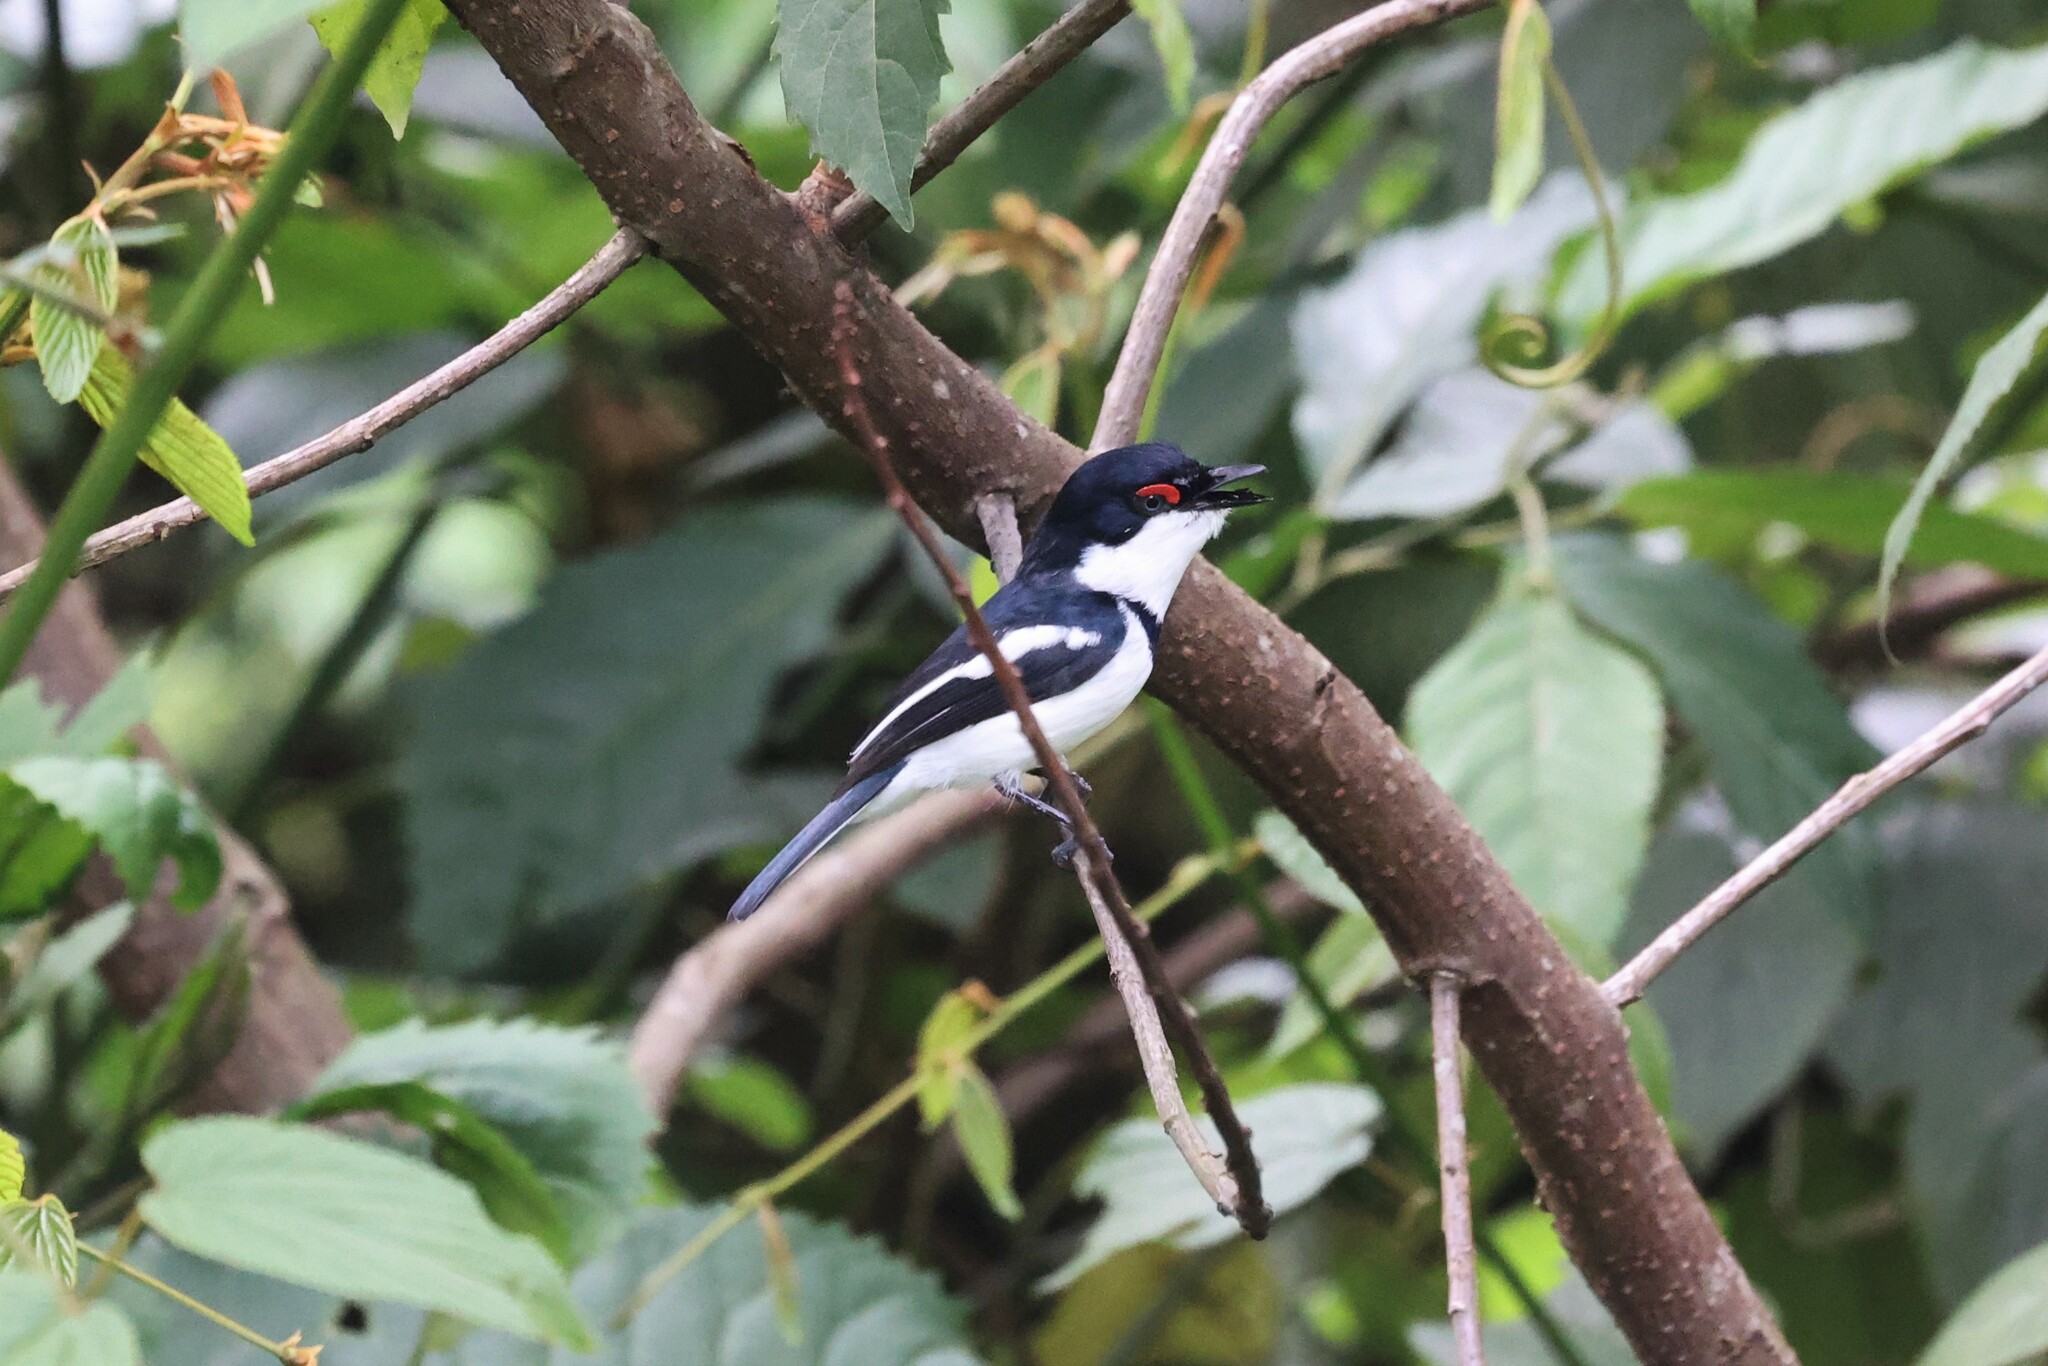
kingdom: Animalia
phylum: Chordata
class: Aves
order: Passeriformes
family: Platysteiridae
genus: Platysteira
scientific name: Platysteira cyanea
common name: Brown-throated wattle-eye
